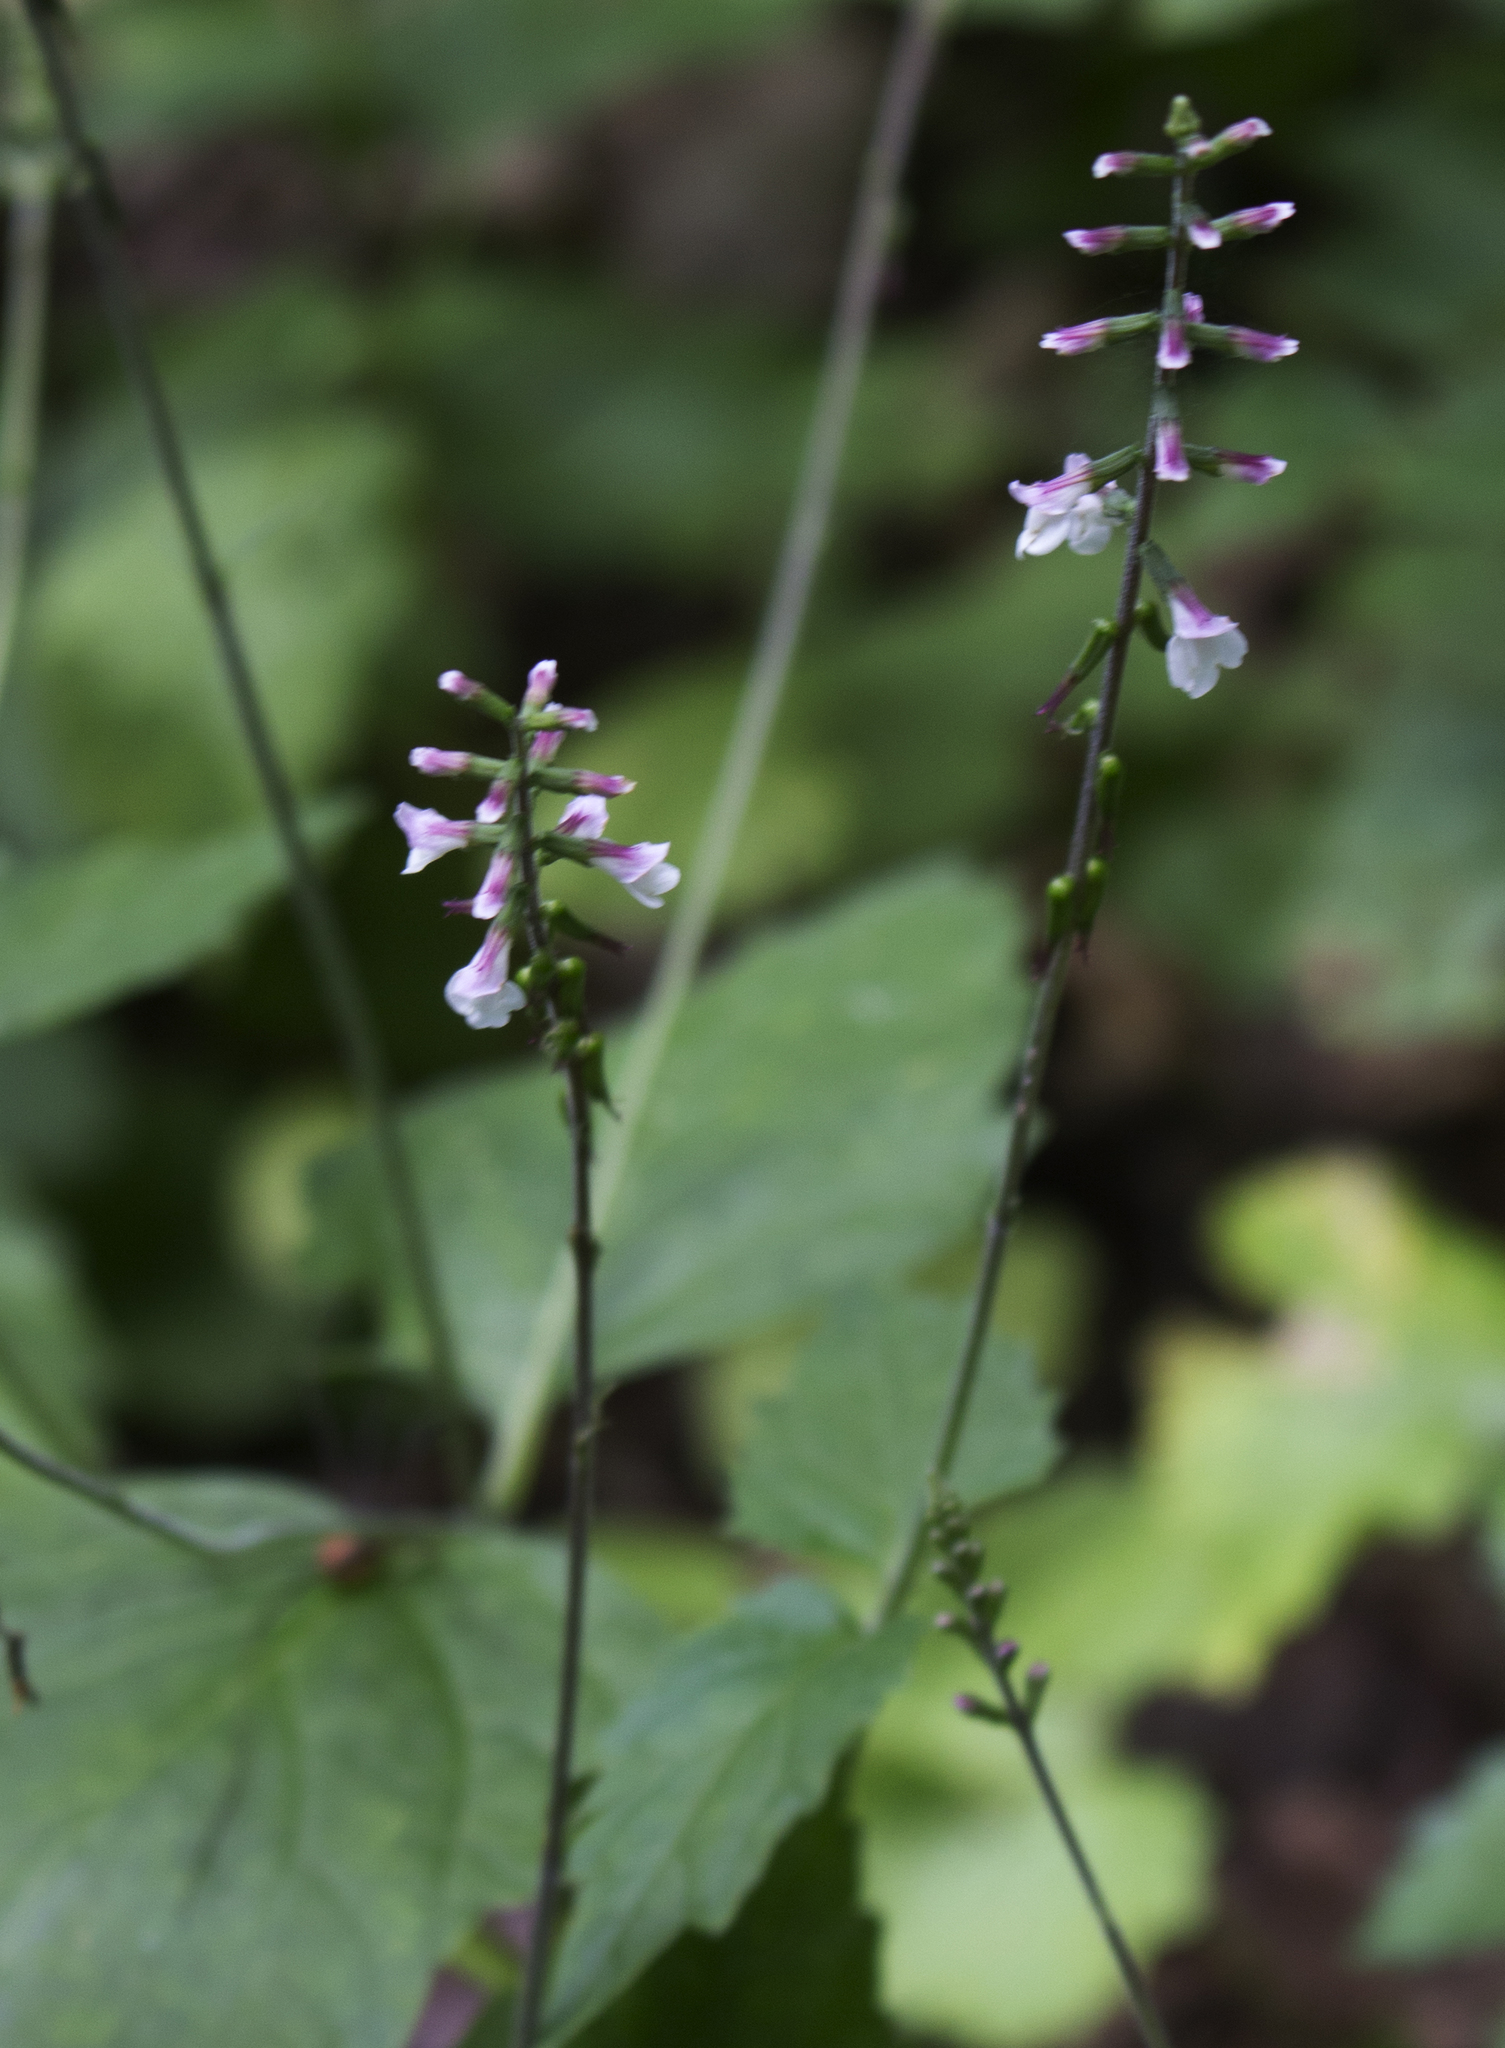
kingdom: Plantae
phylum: Tracheophyta
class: Magnoliopsida
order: Lamiales
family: Phrymaceae
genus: Phryma
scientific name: Phryma leptostachya
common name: American lopseed
